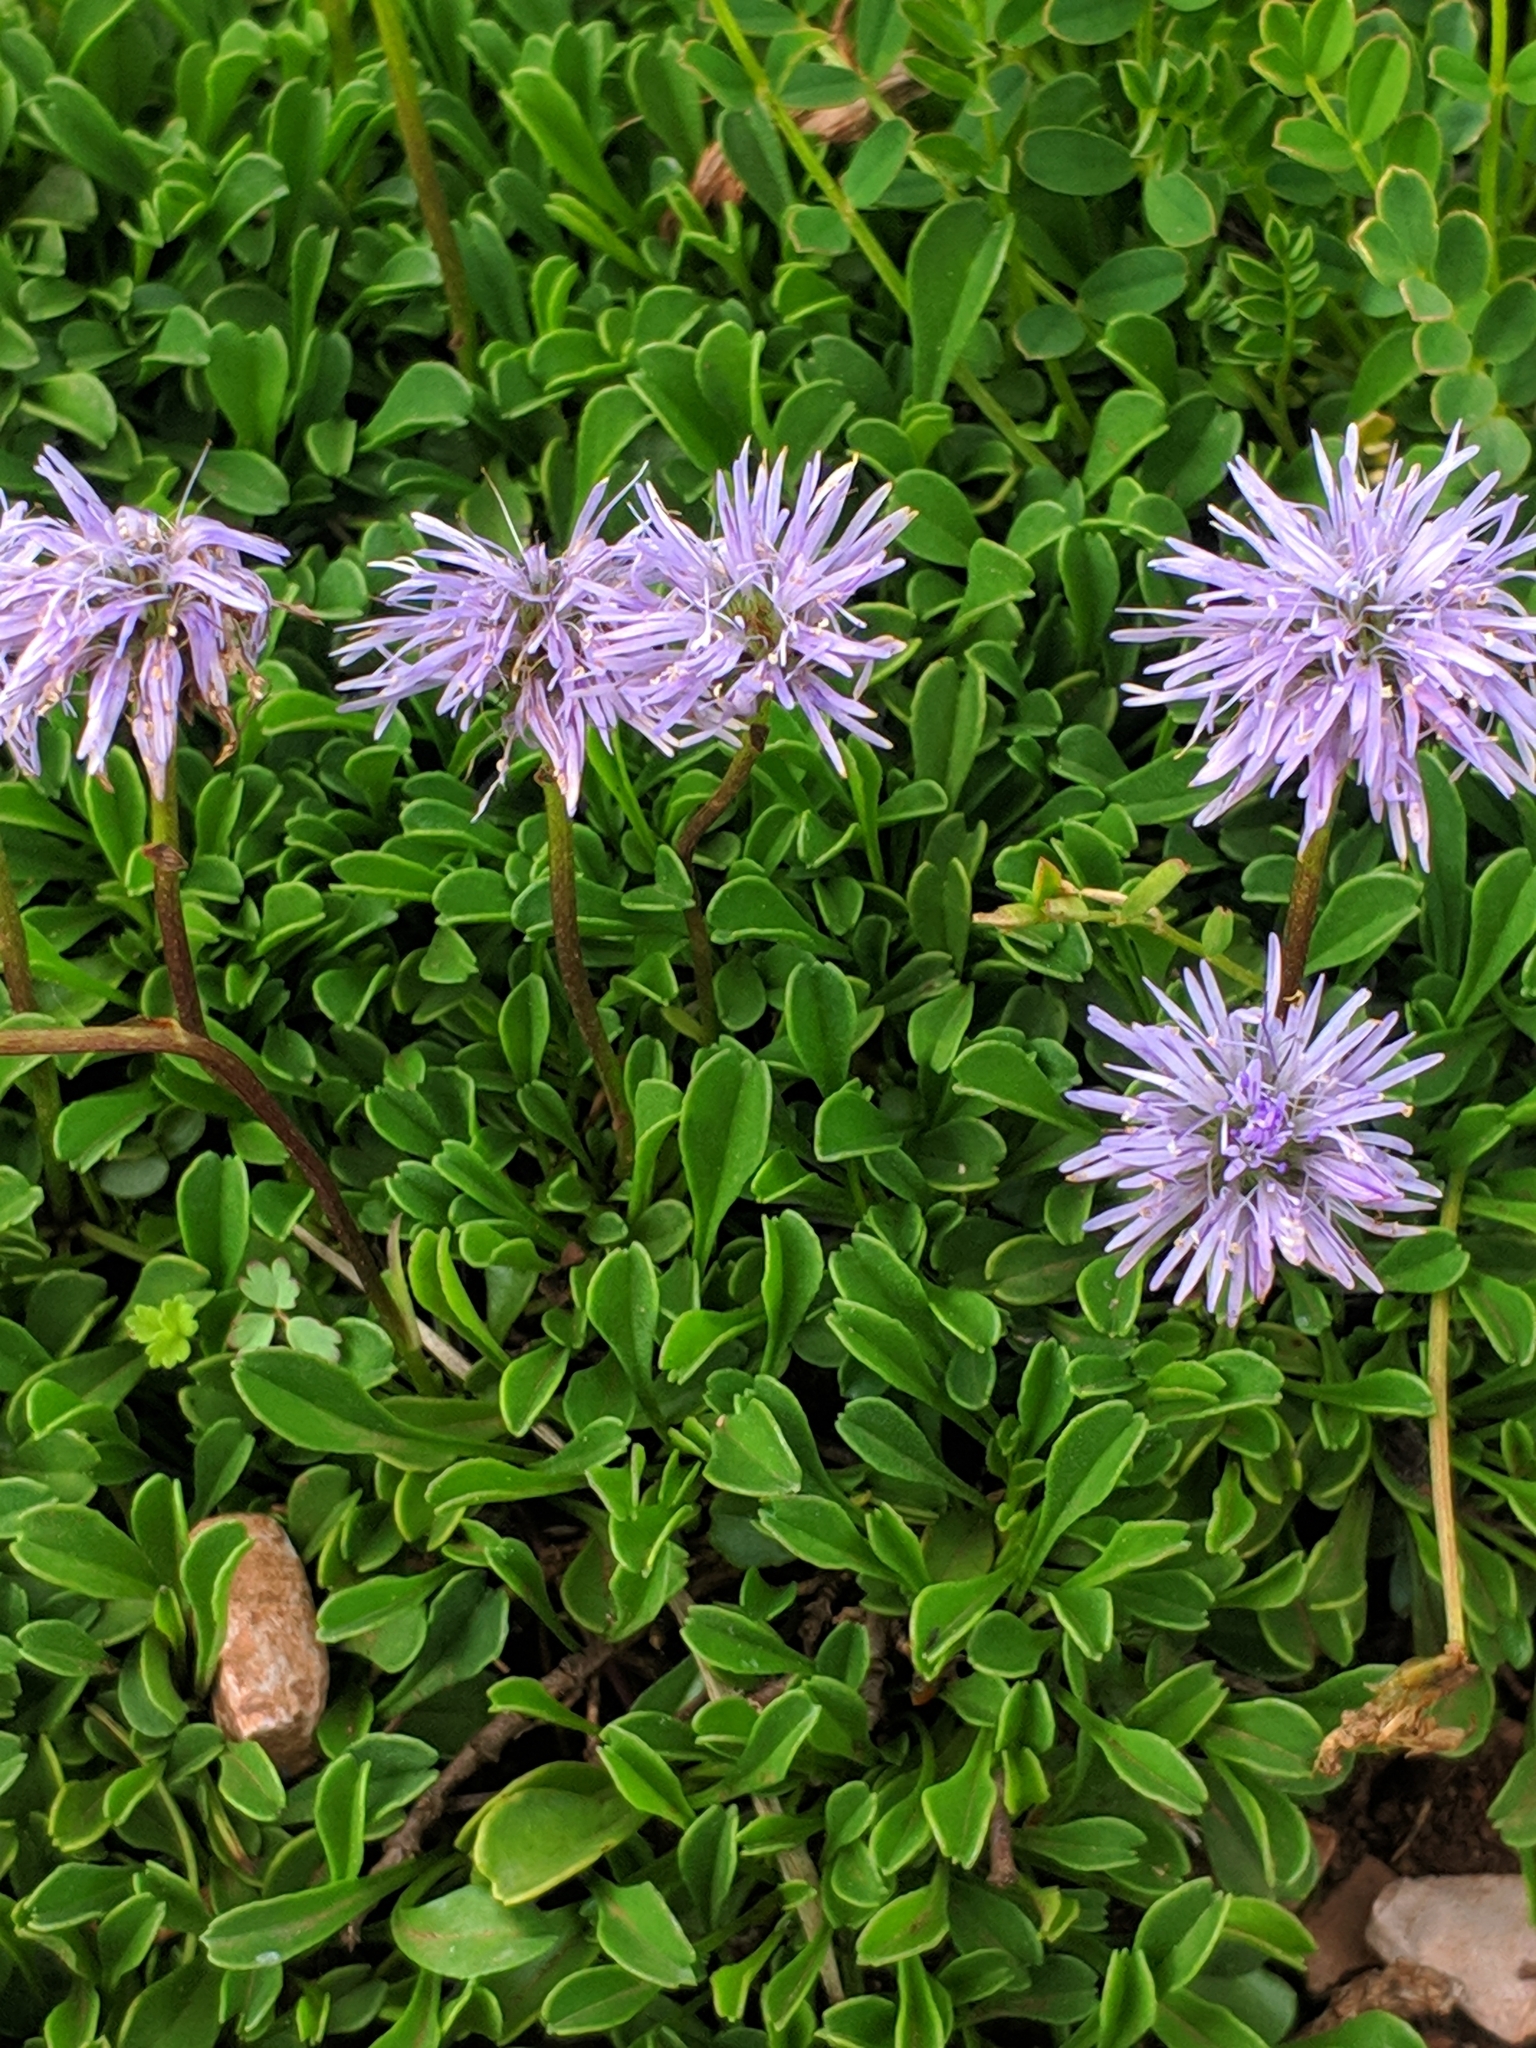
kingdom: Plantae
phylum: Tracheophyta
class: Magnoliopsida
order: Lamiales
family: Plantaginaceae
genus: Globularia
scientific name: Globularia cordifolia
